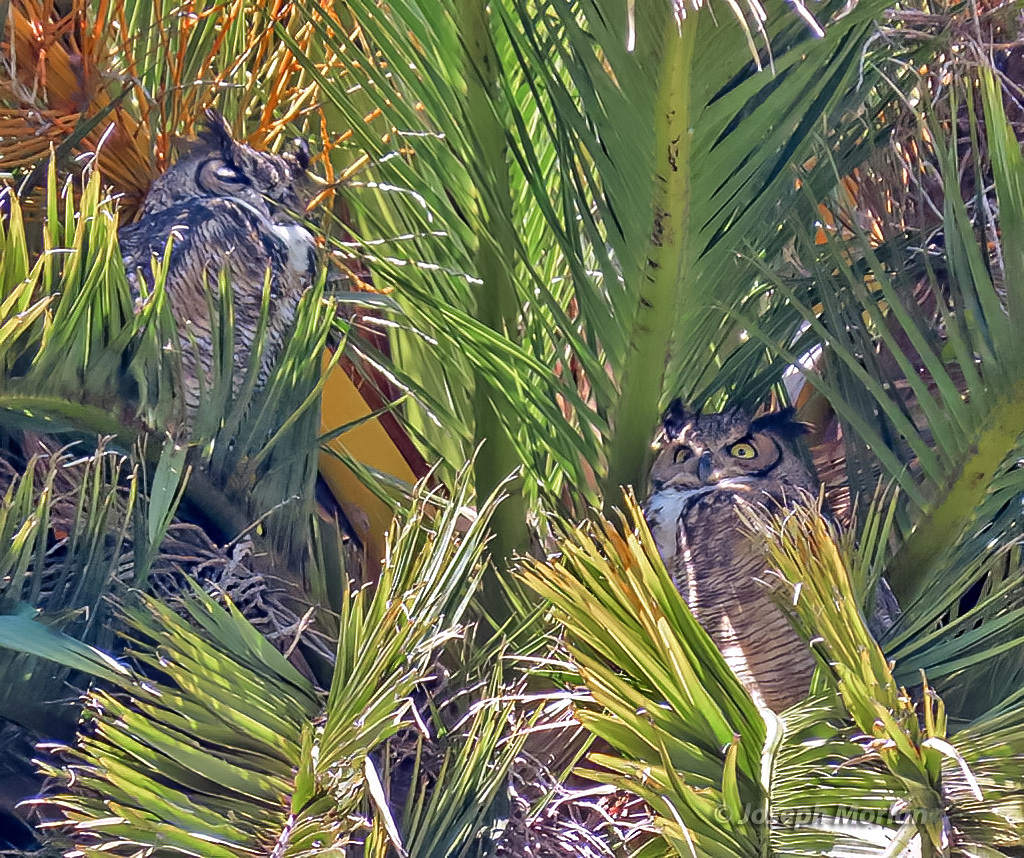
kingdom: Animalia
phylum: Chordata
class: Aves
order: Strigiformes
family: Strigidae
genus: Bubo
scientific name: Bubo virginianus
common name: Great horned owl
